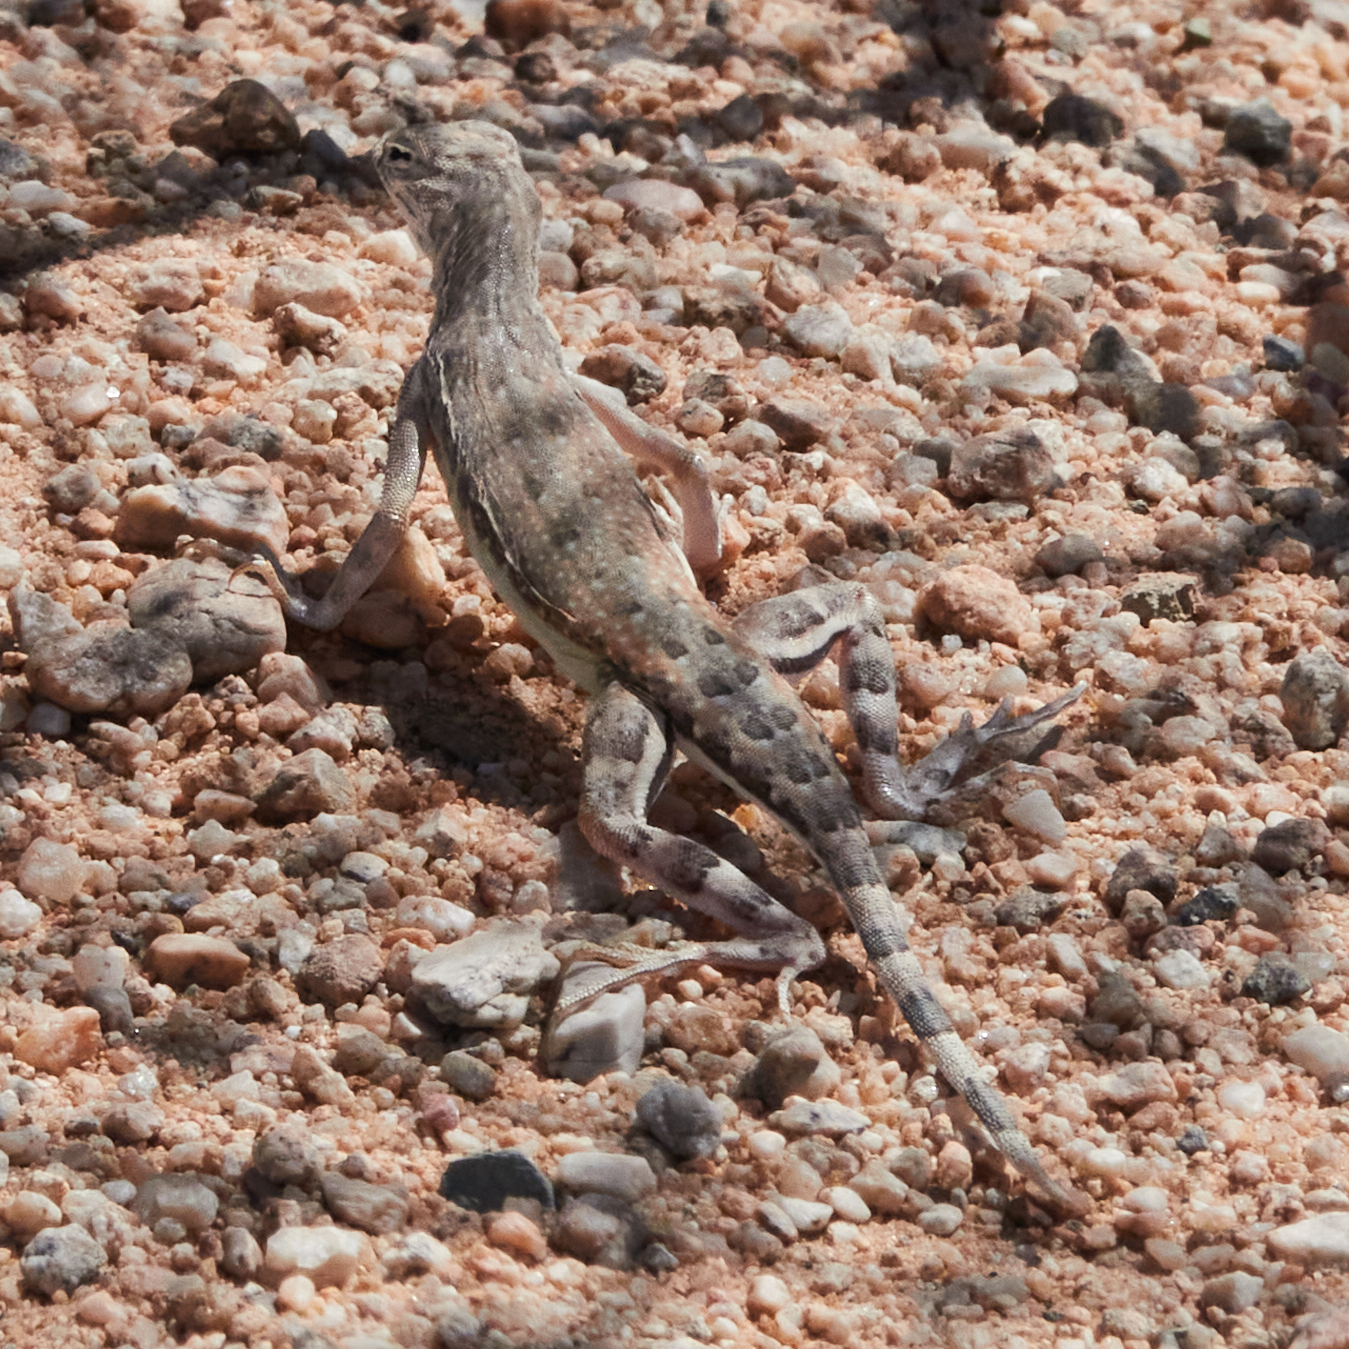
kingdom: Animalia
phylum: Chordata
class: Squamata
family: Phrynosomatidae
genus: Callisaurus
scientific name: Callisaurus draconoides
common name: Zebra-tailed lizard
